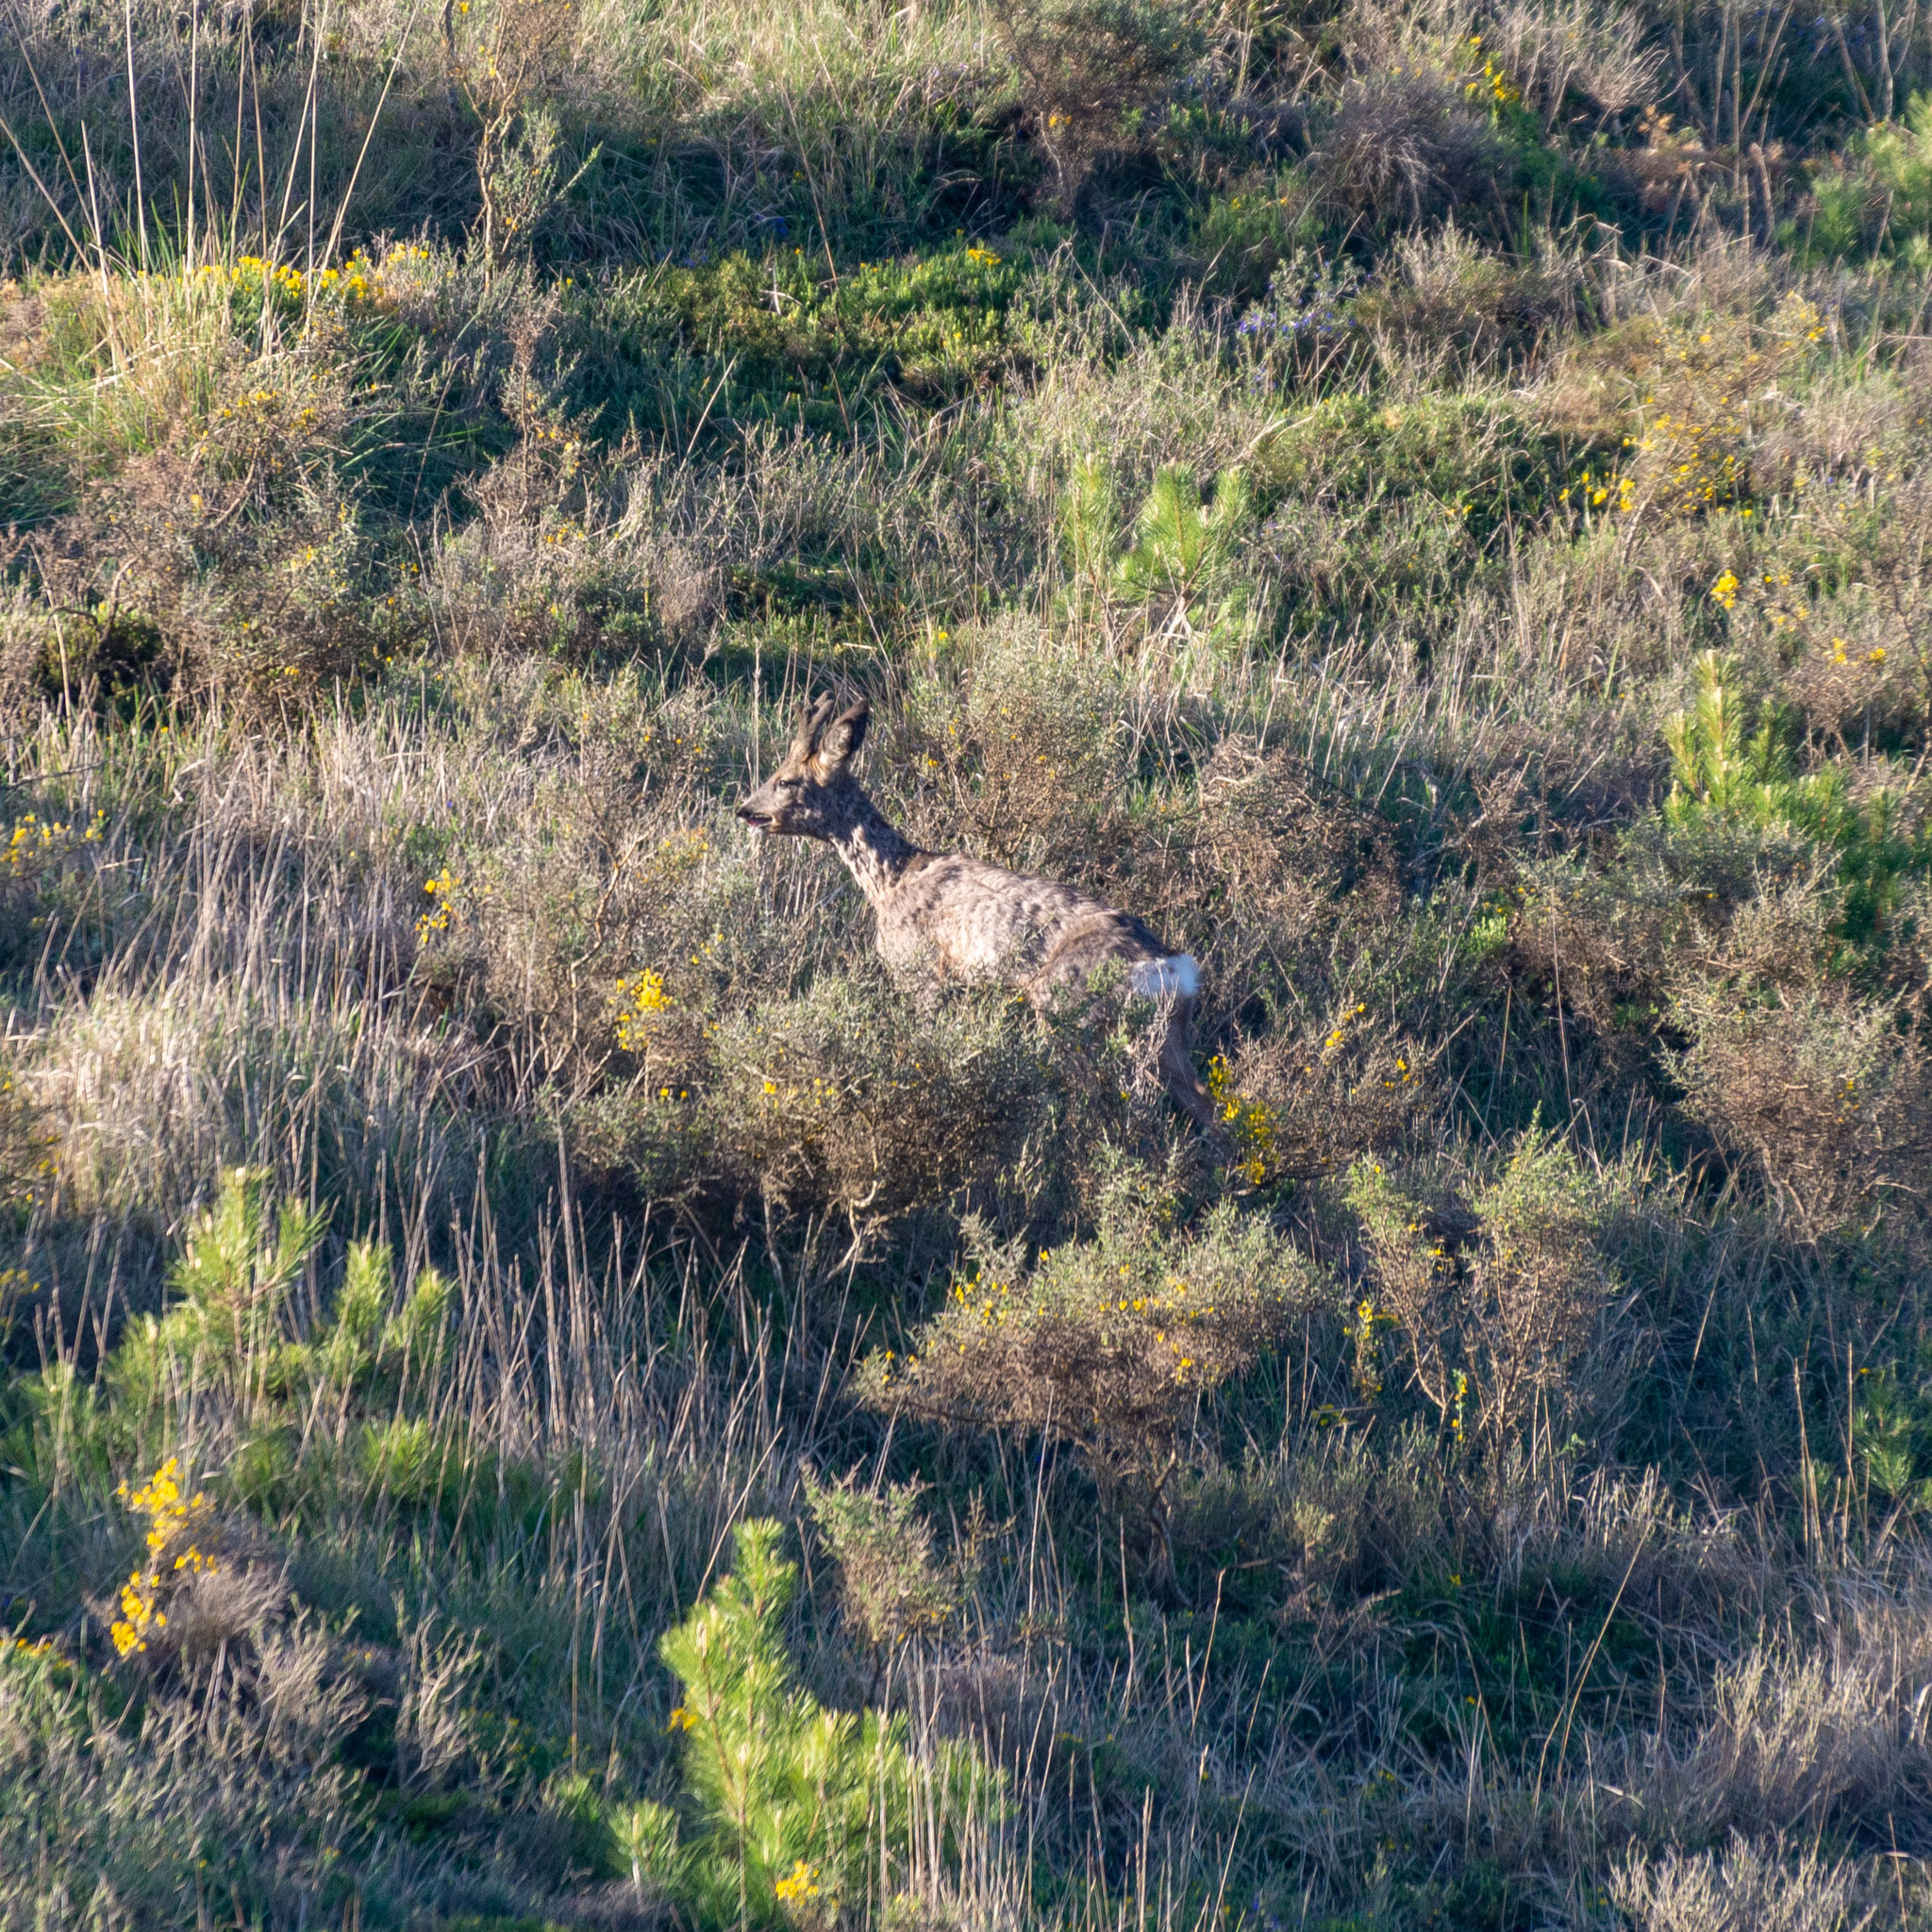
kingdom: Animalia
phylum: Chordata
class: Mammalia
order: Artiodactyla
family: Cervidae
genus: Capreolus
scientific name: Capreolus capreolus
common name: Western roe deer
